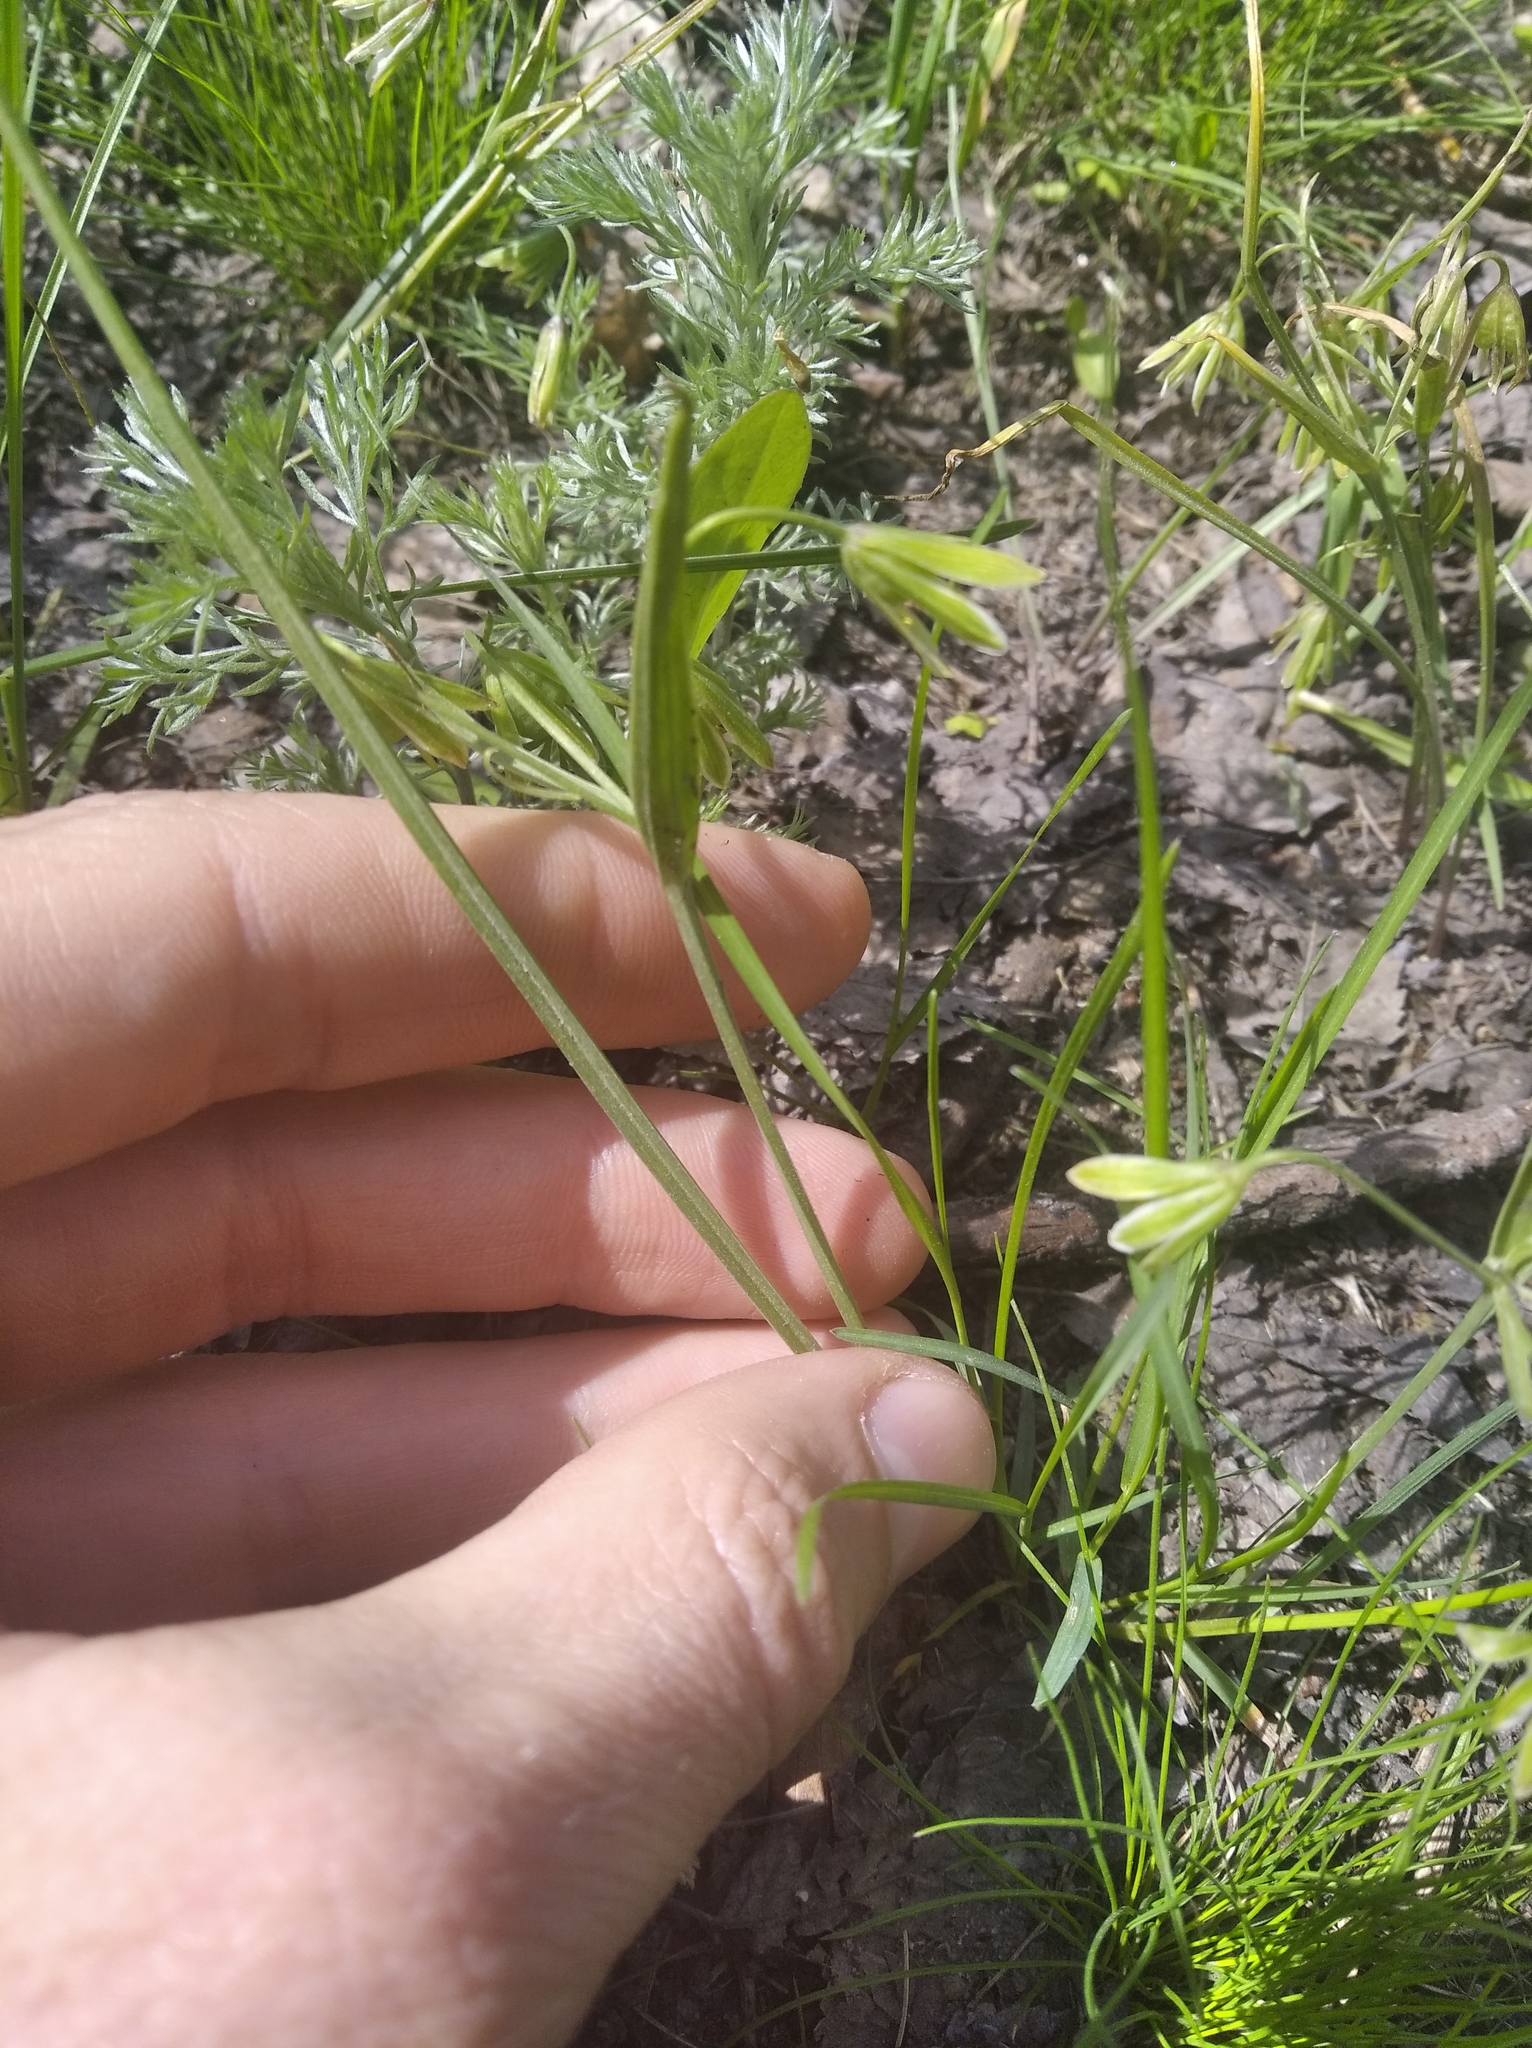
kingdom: Plantae
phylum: Tracheophyta
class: Liliopsida
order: Liliales
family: Liliaceae
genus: Gagea
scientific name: Gagea fragifera
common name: Lily
